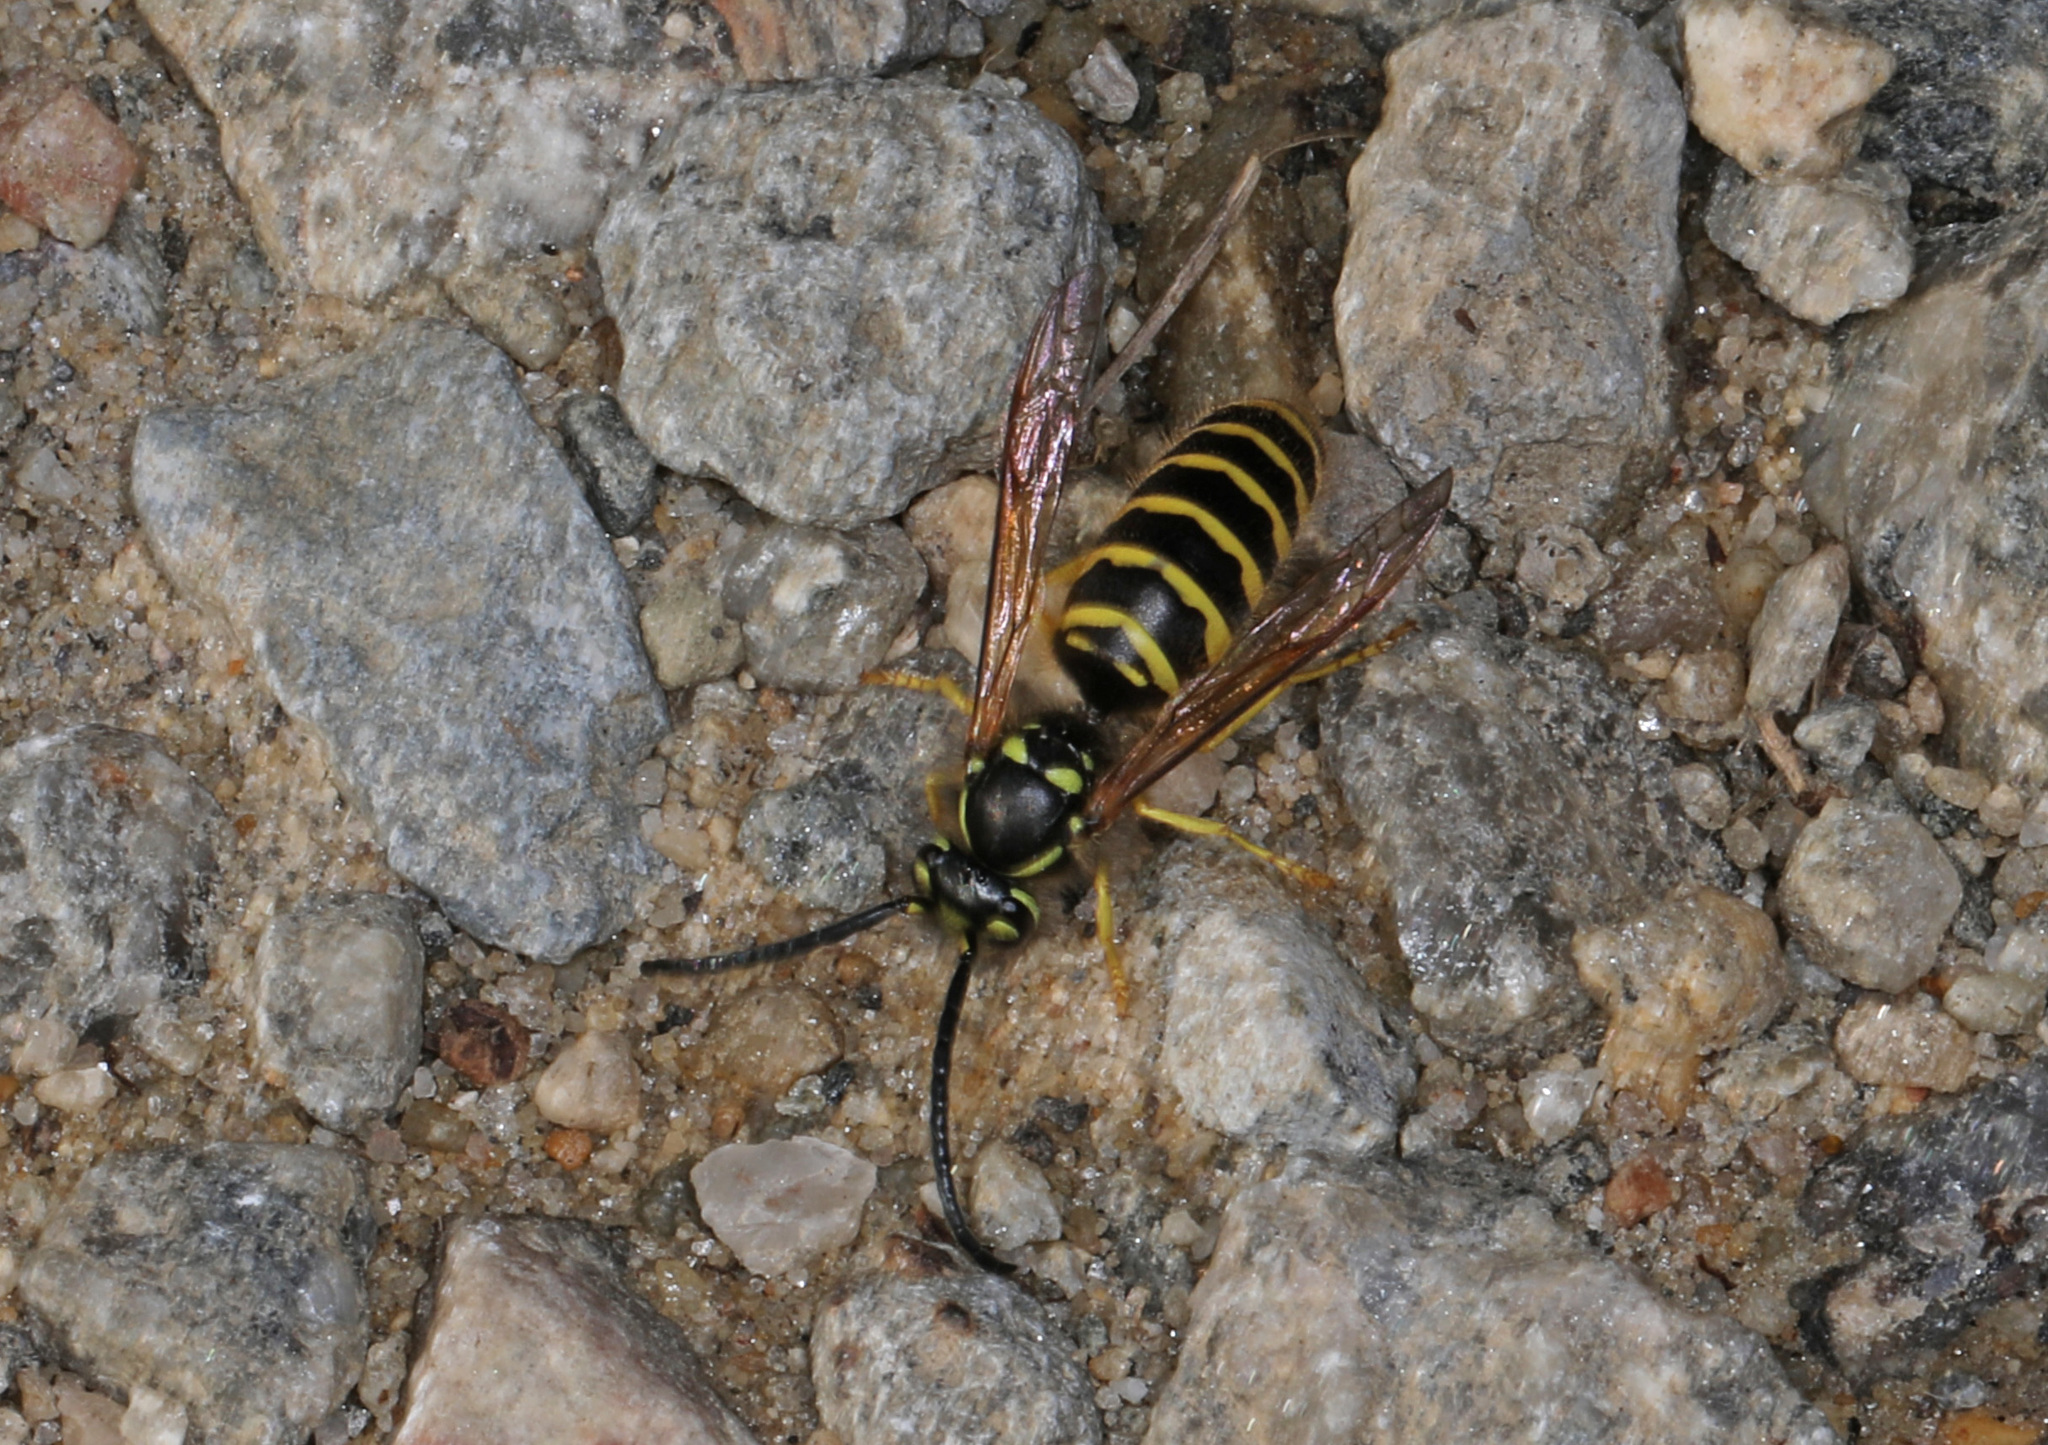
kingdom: Animalia
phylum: Arthropoda
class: Insecta
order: Hymenoptera
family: Vespidae
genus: Vespula
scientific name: Vespula maculifrons
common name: Eastern yellowjacket
